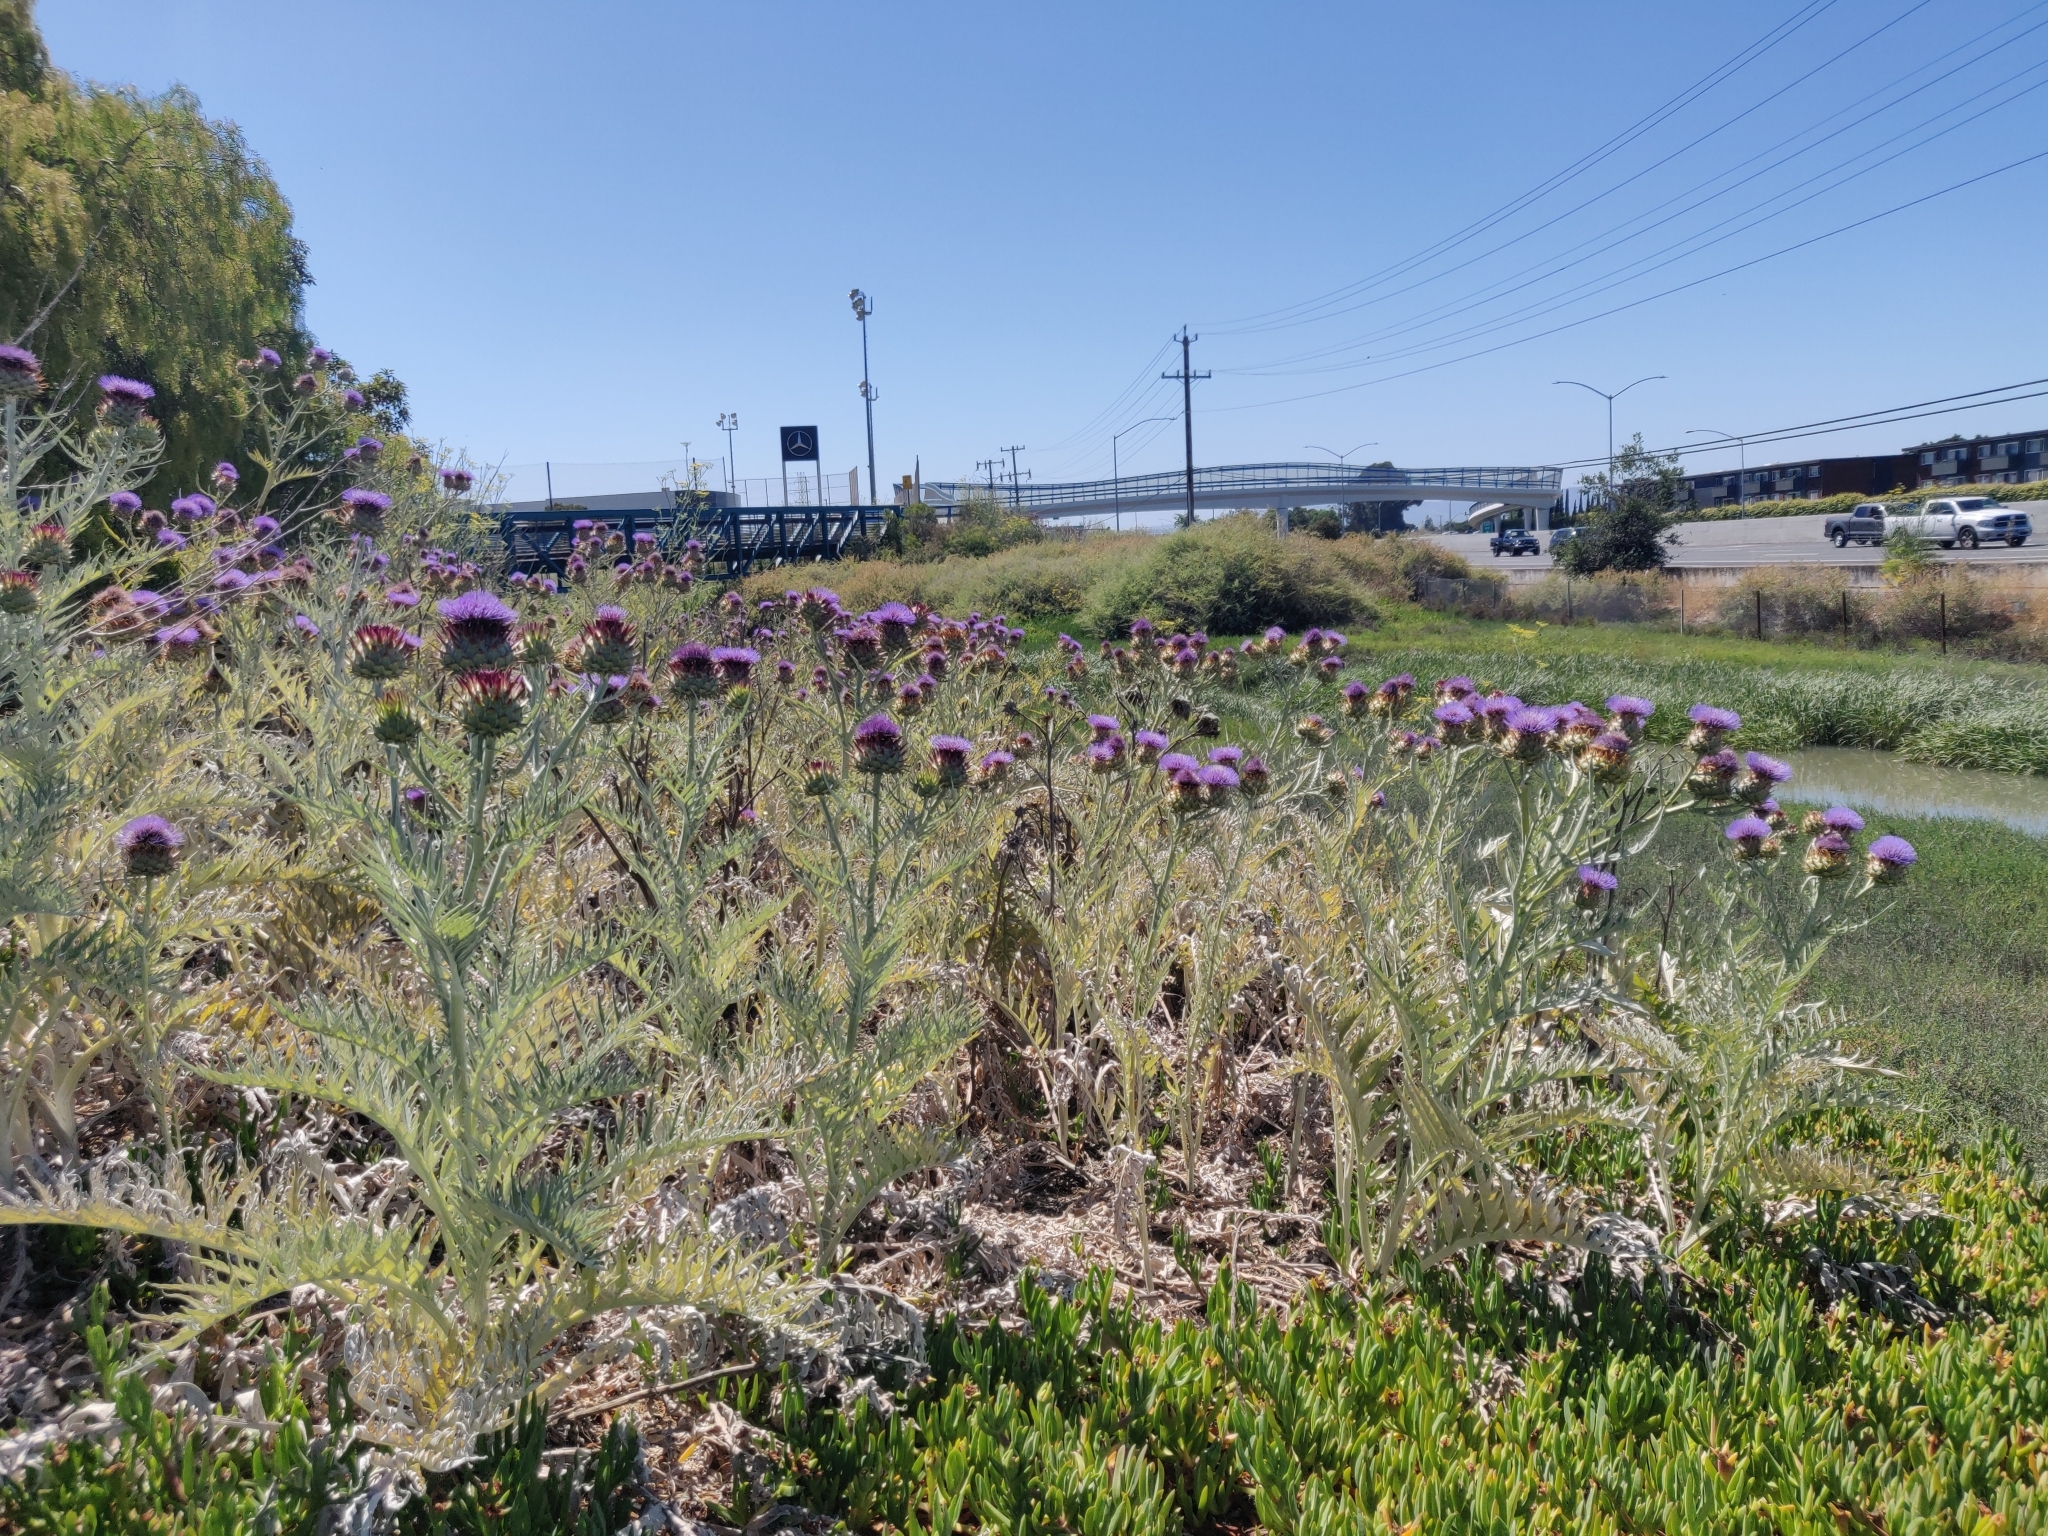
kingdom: Plantae
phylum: Tracheophyta
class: Magnoliopsida
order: Asterales
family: Asteraceae
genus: Cynara
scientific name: Cynara cardunculus
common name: Globe artichoke
